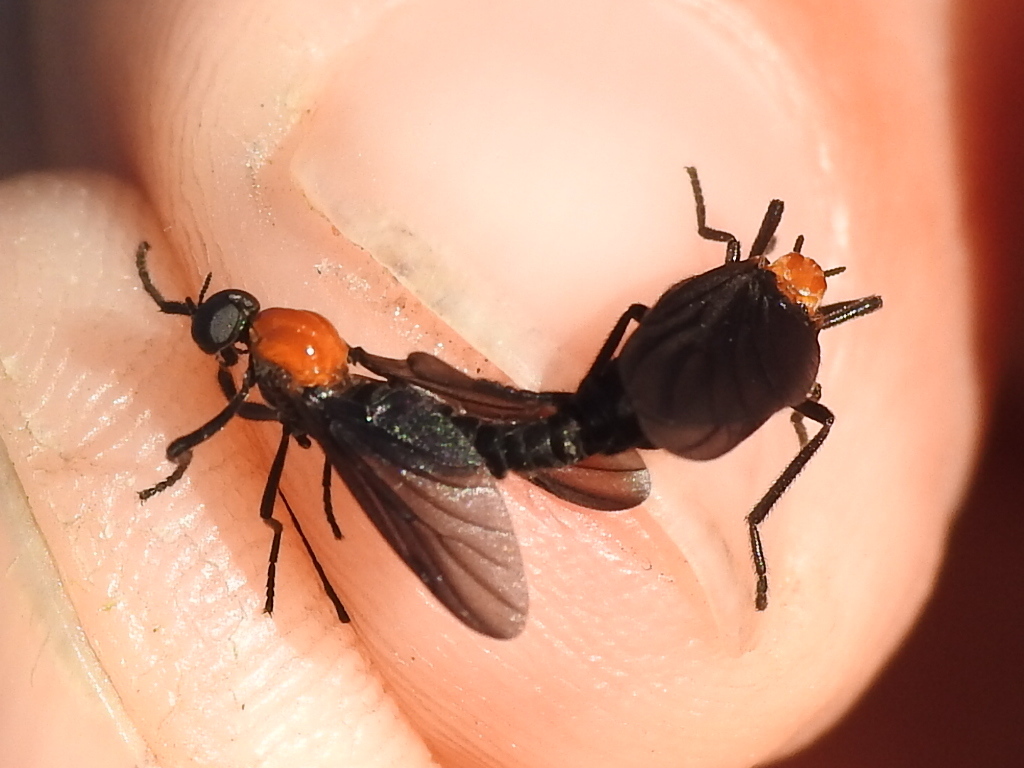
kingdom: Animalia
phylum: Arthropoda
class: Insecta
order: Diptera
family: Bibionidae
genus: Plecia
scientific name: Plecia nearctica
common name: March fly
